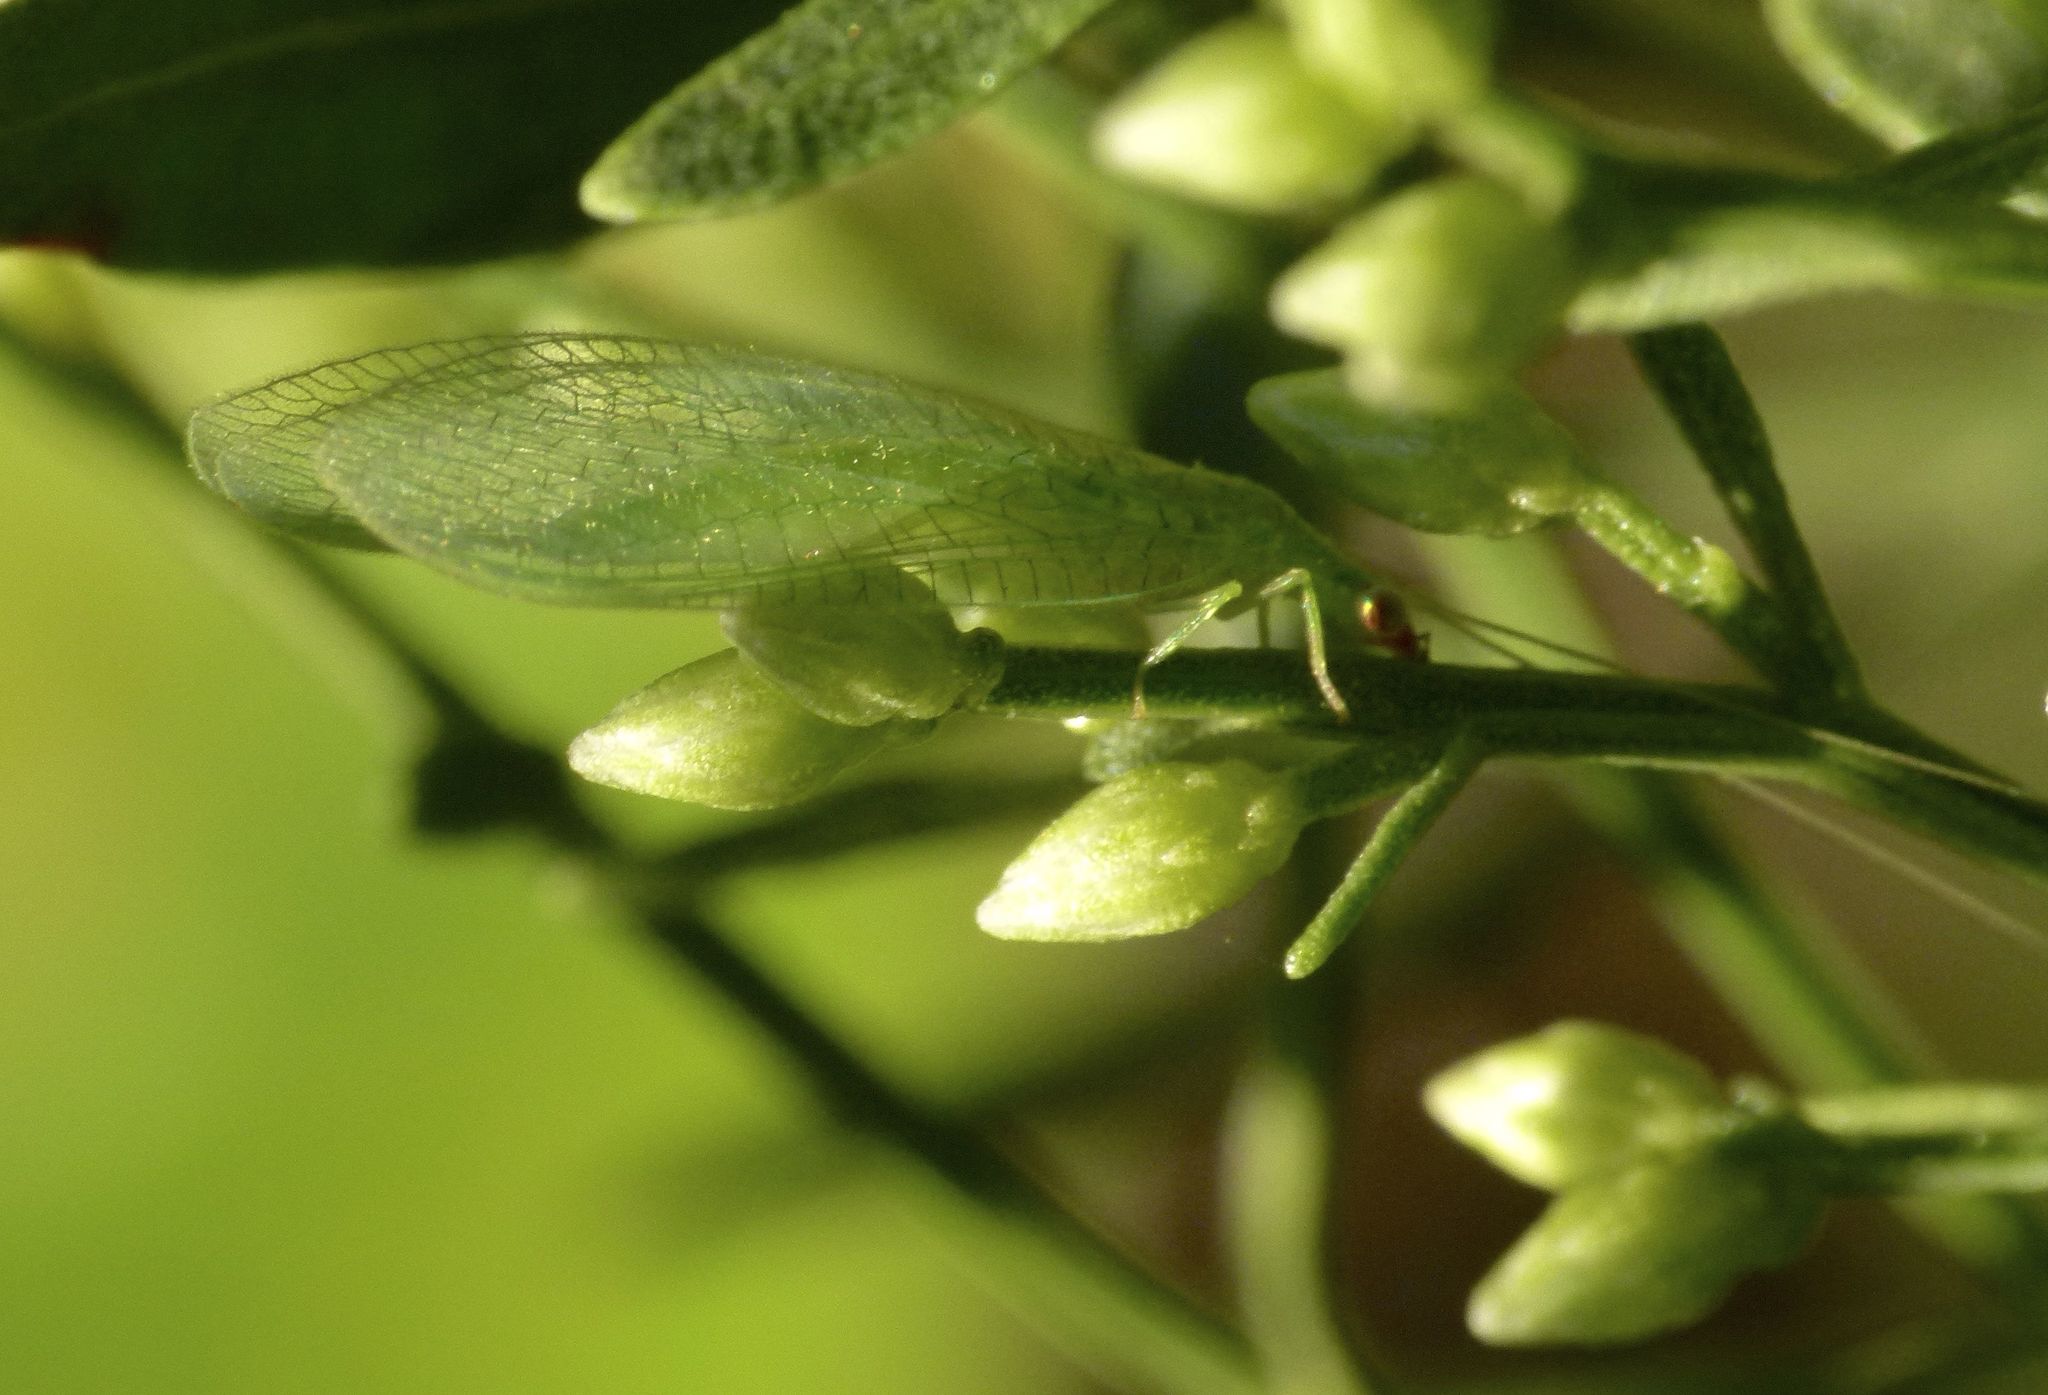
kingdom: Animalia
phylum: Arthropoda
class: Insecta
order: Neuroptera
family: Chrysopidae
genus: Chrysoperla
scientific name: Chrysoperla rufilabris
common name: Red-lipped green lacewing
